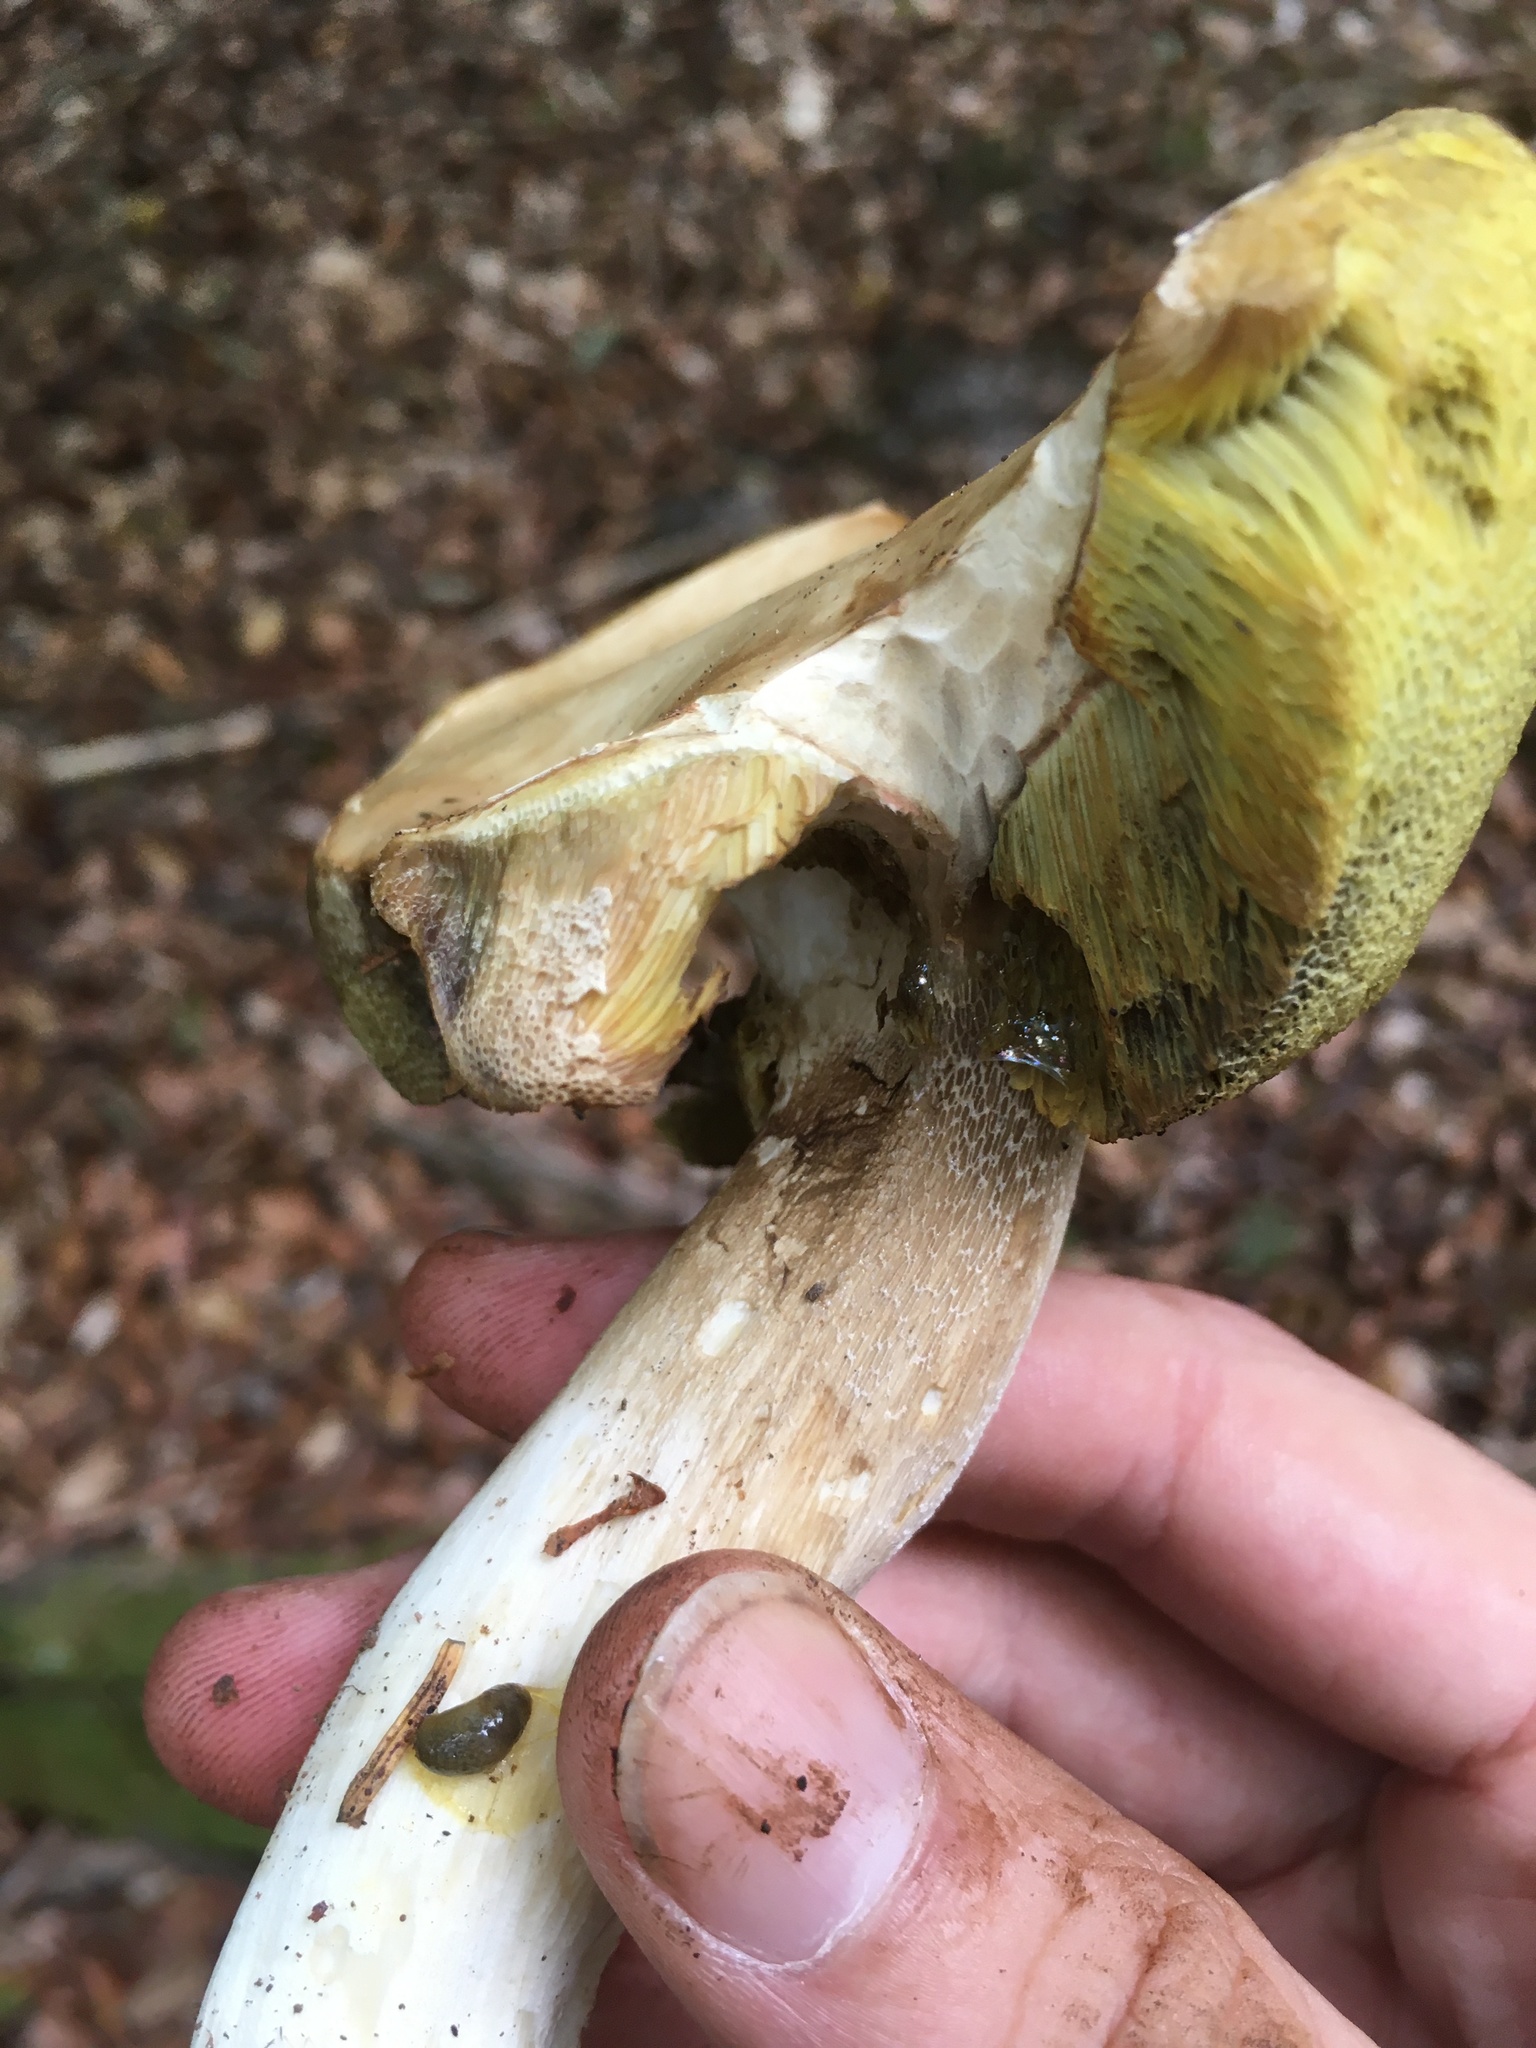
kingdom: Fungi
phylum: Basidiomycota
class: Agaricomycetes
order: Boletales
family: Boletaceae
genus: Boletus
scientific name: Boletus edulis
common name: Cep
